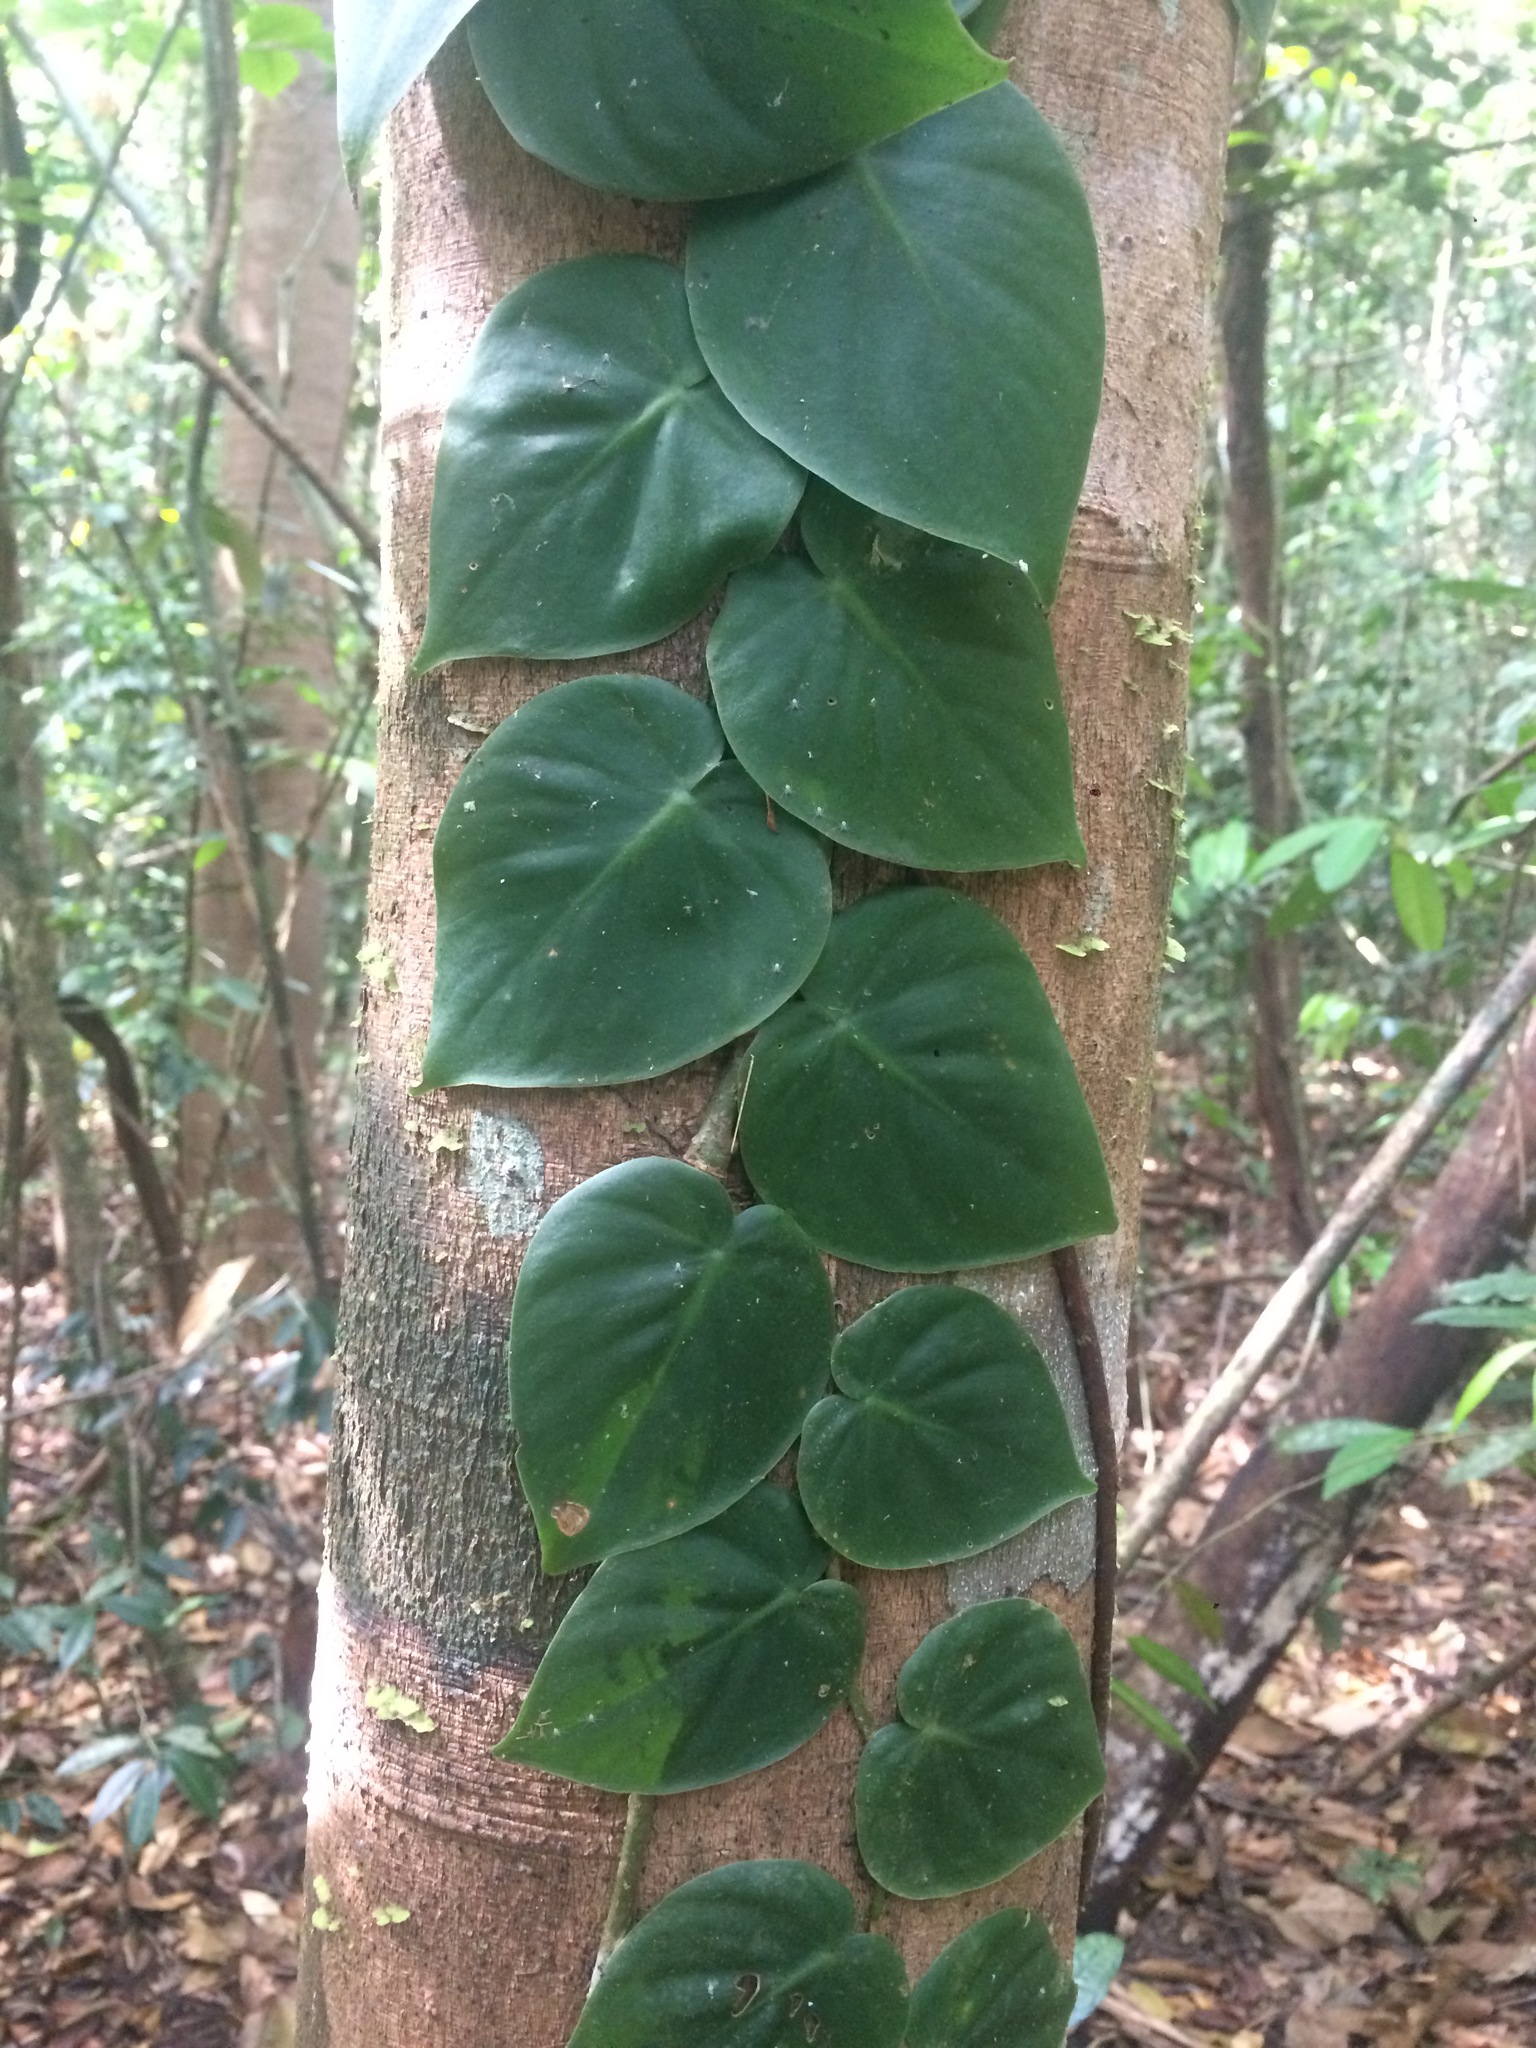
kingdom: Plantae
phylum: Tracheophyta
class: Liliopsida
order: Alismatales
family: Araceae
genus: Philodendron
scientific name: Philodendron hederaceum
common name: Vilevine
